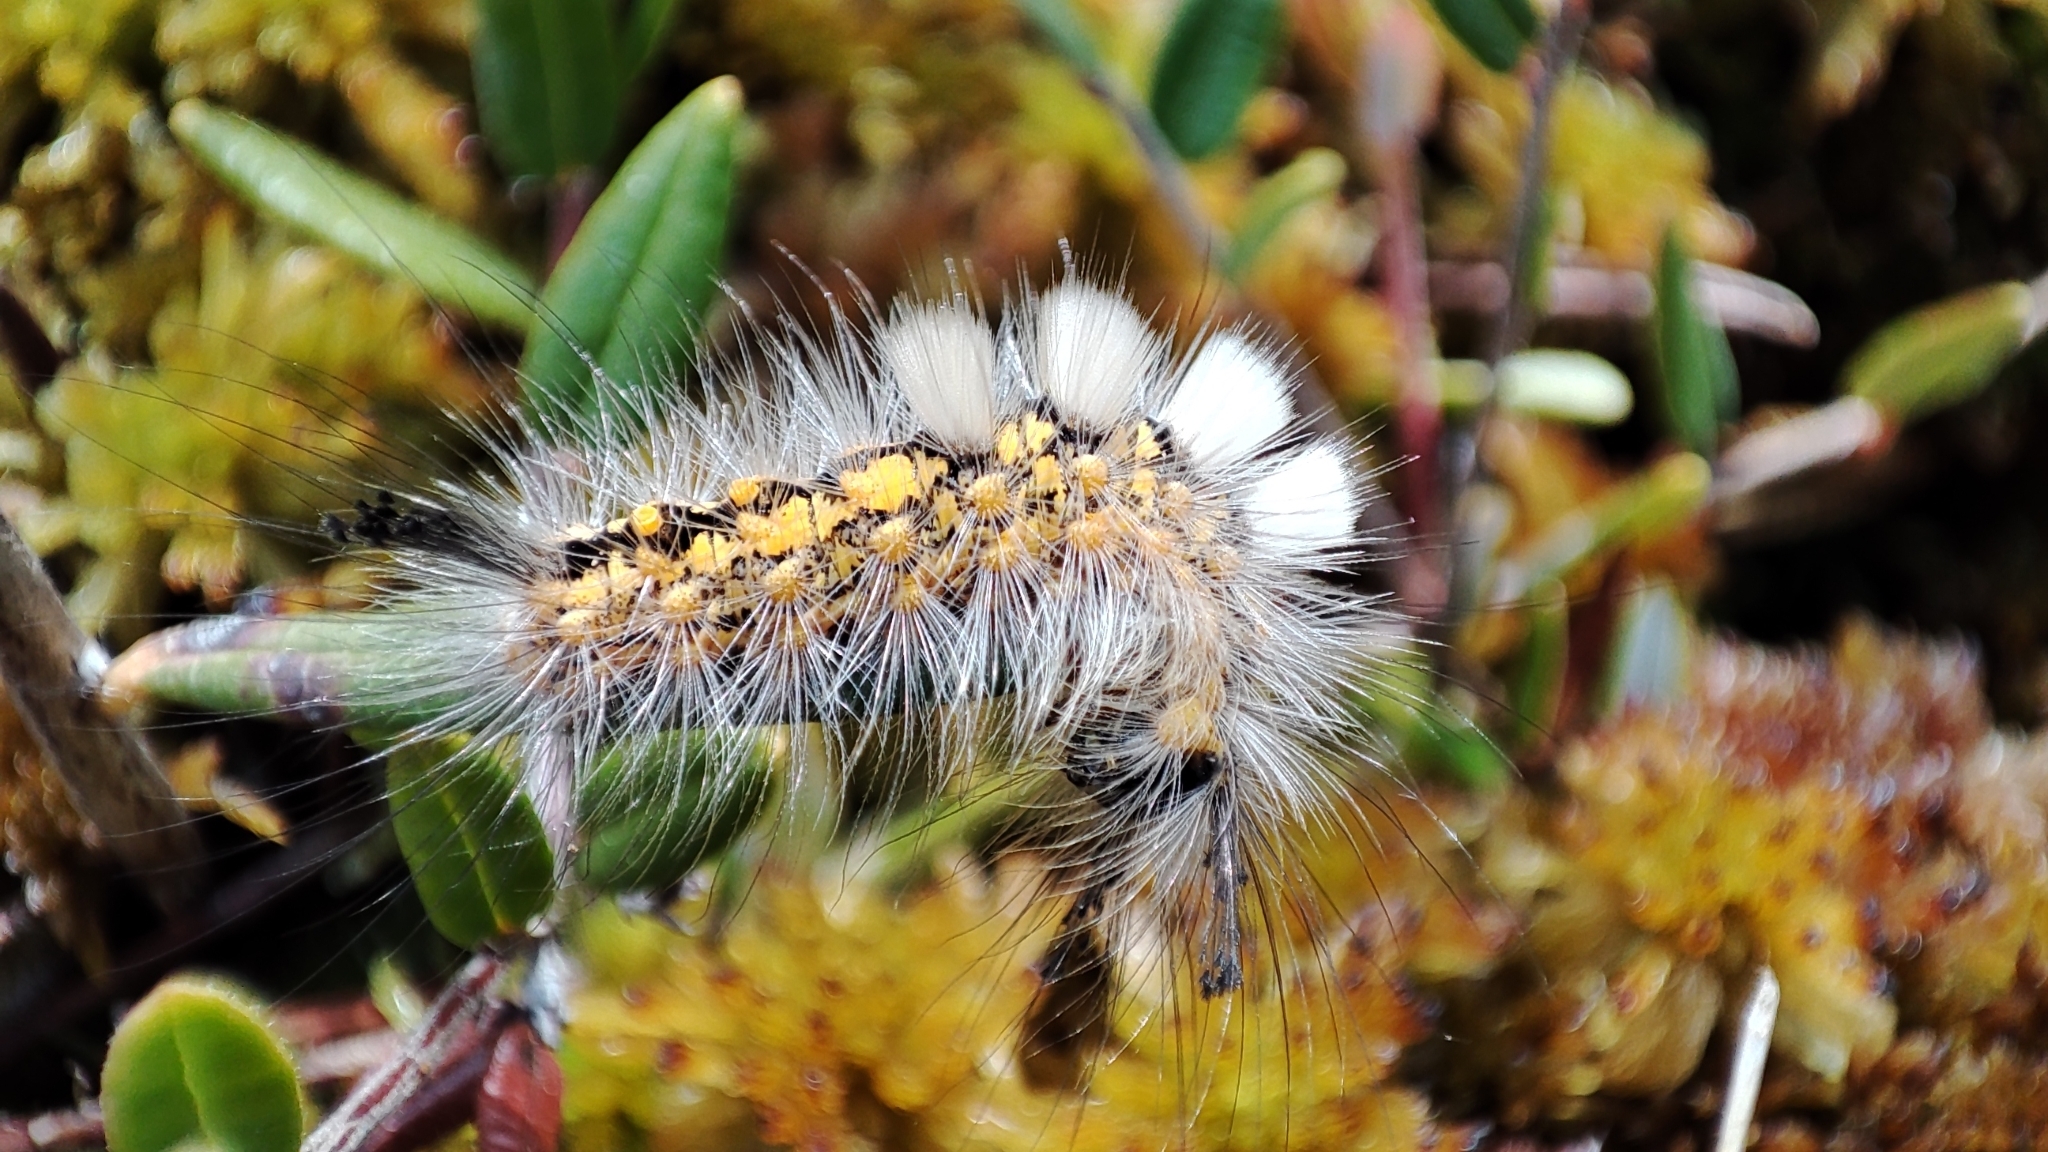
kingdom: Animalia
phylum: Arthropoda
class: Insecta
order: Lepidoptera
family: Erebidae
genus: Orgyia
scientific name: Orgyia antiquoides
